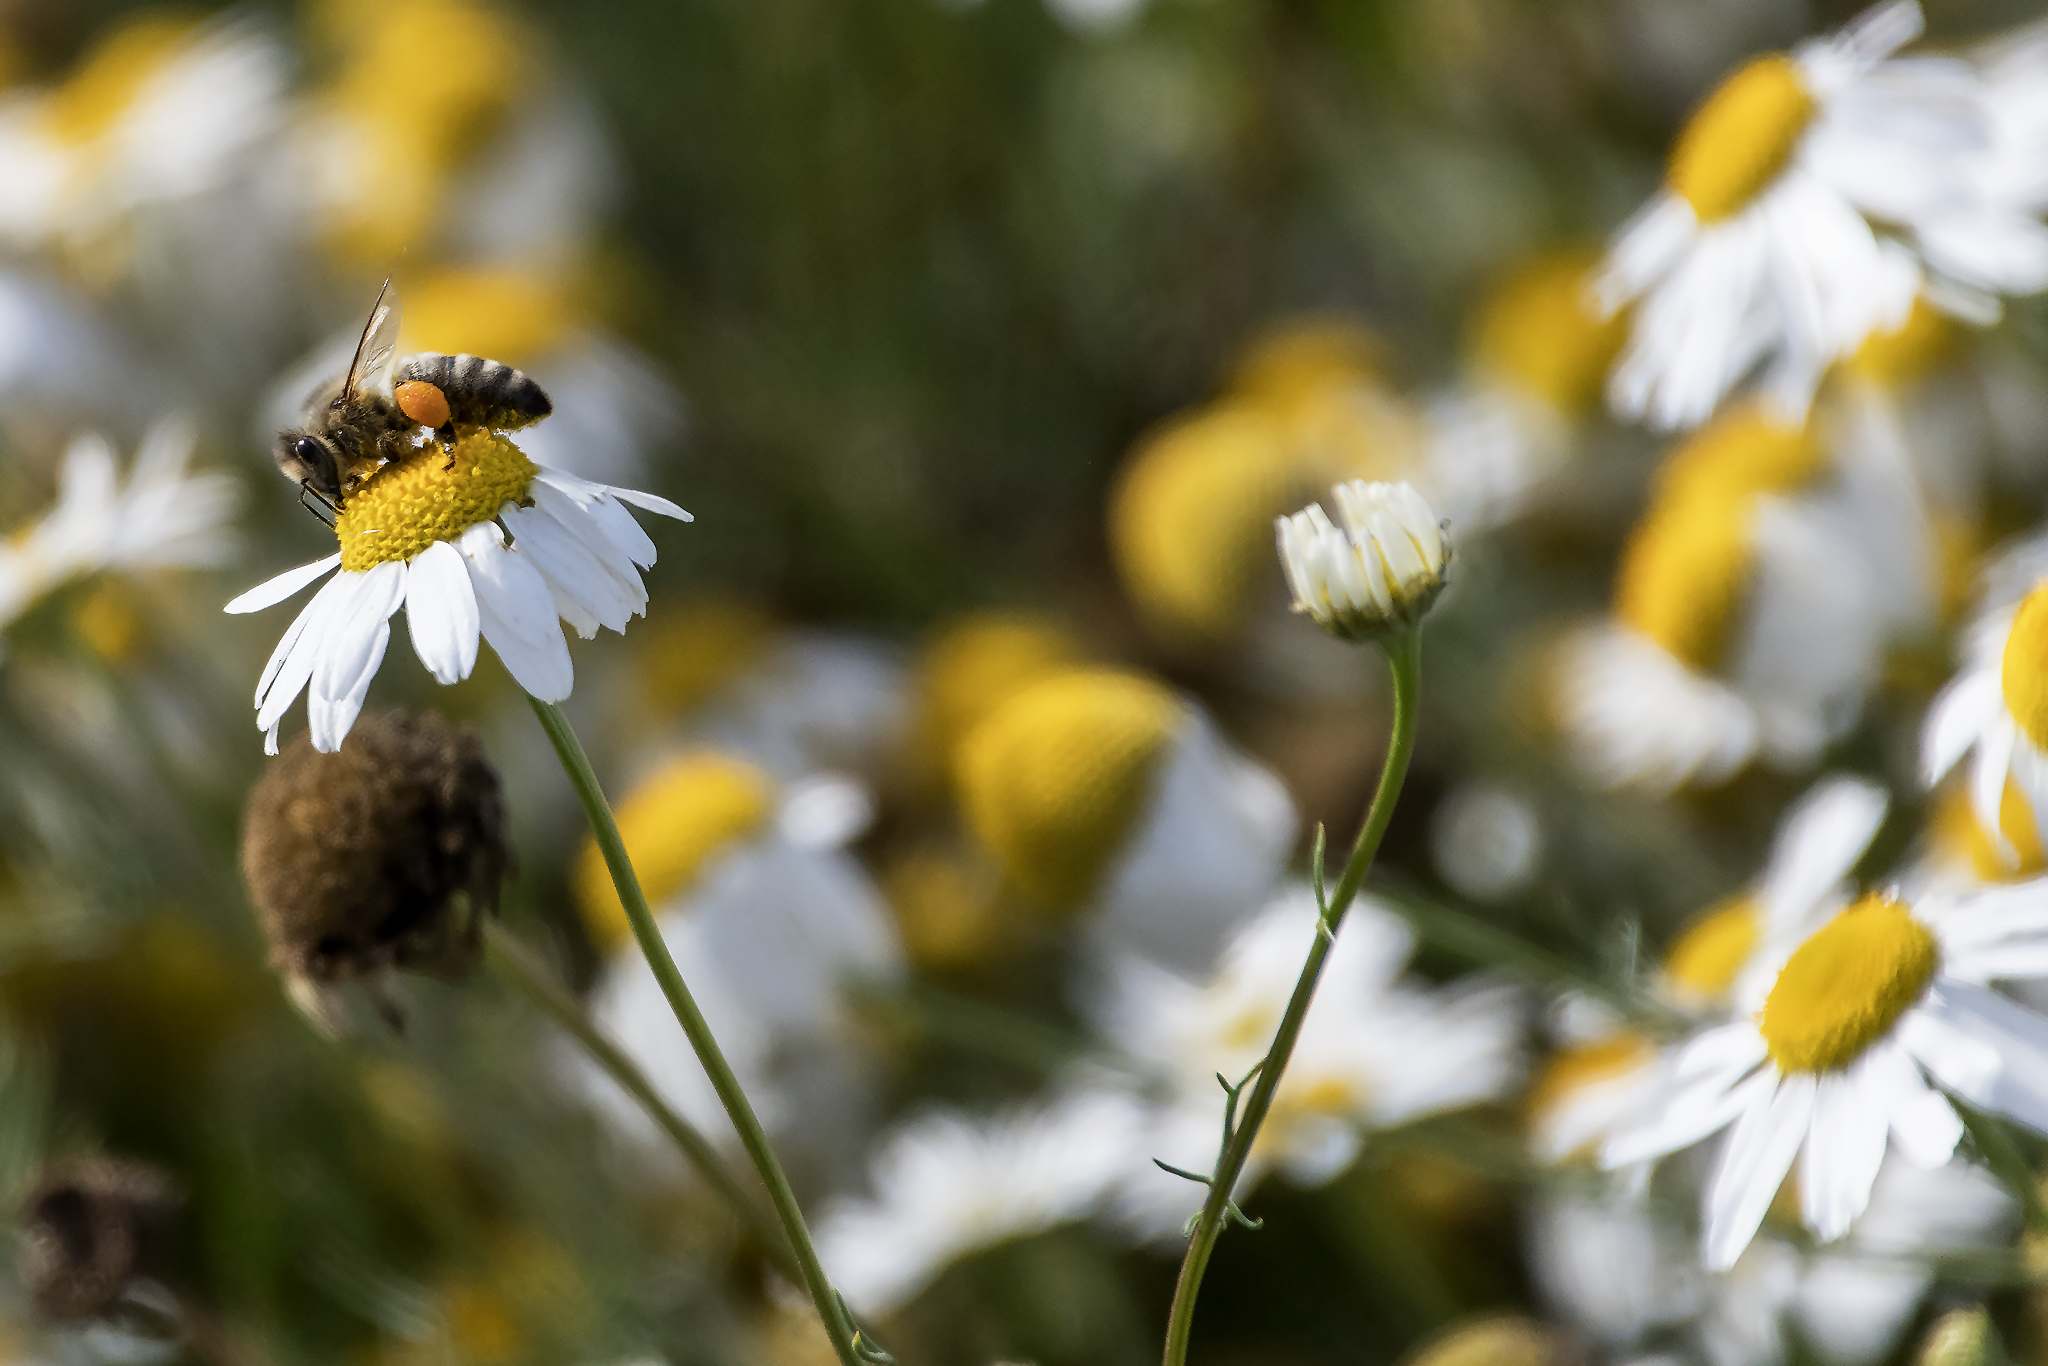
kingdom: Animalia
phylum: Arthropoda
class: Insecta
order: Hymenoptera
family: Apidae
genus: Apis
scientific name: Apis mellifera
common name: Honey bee
